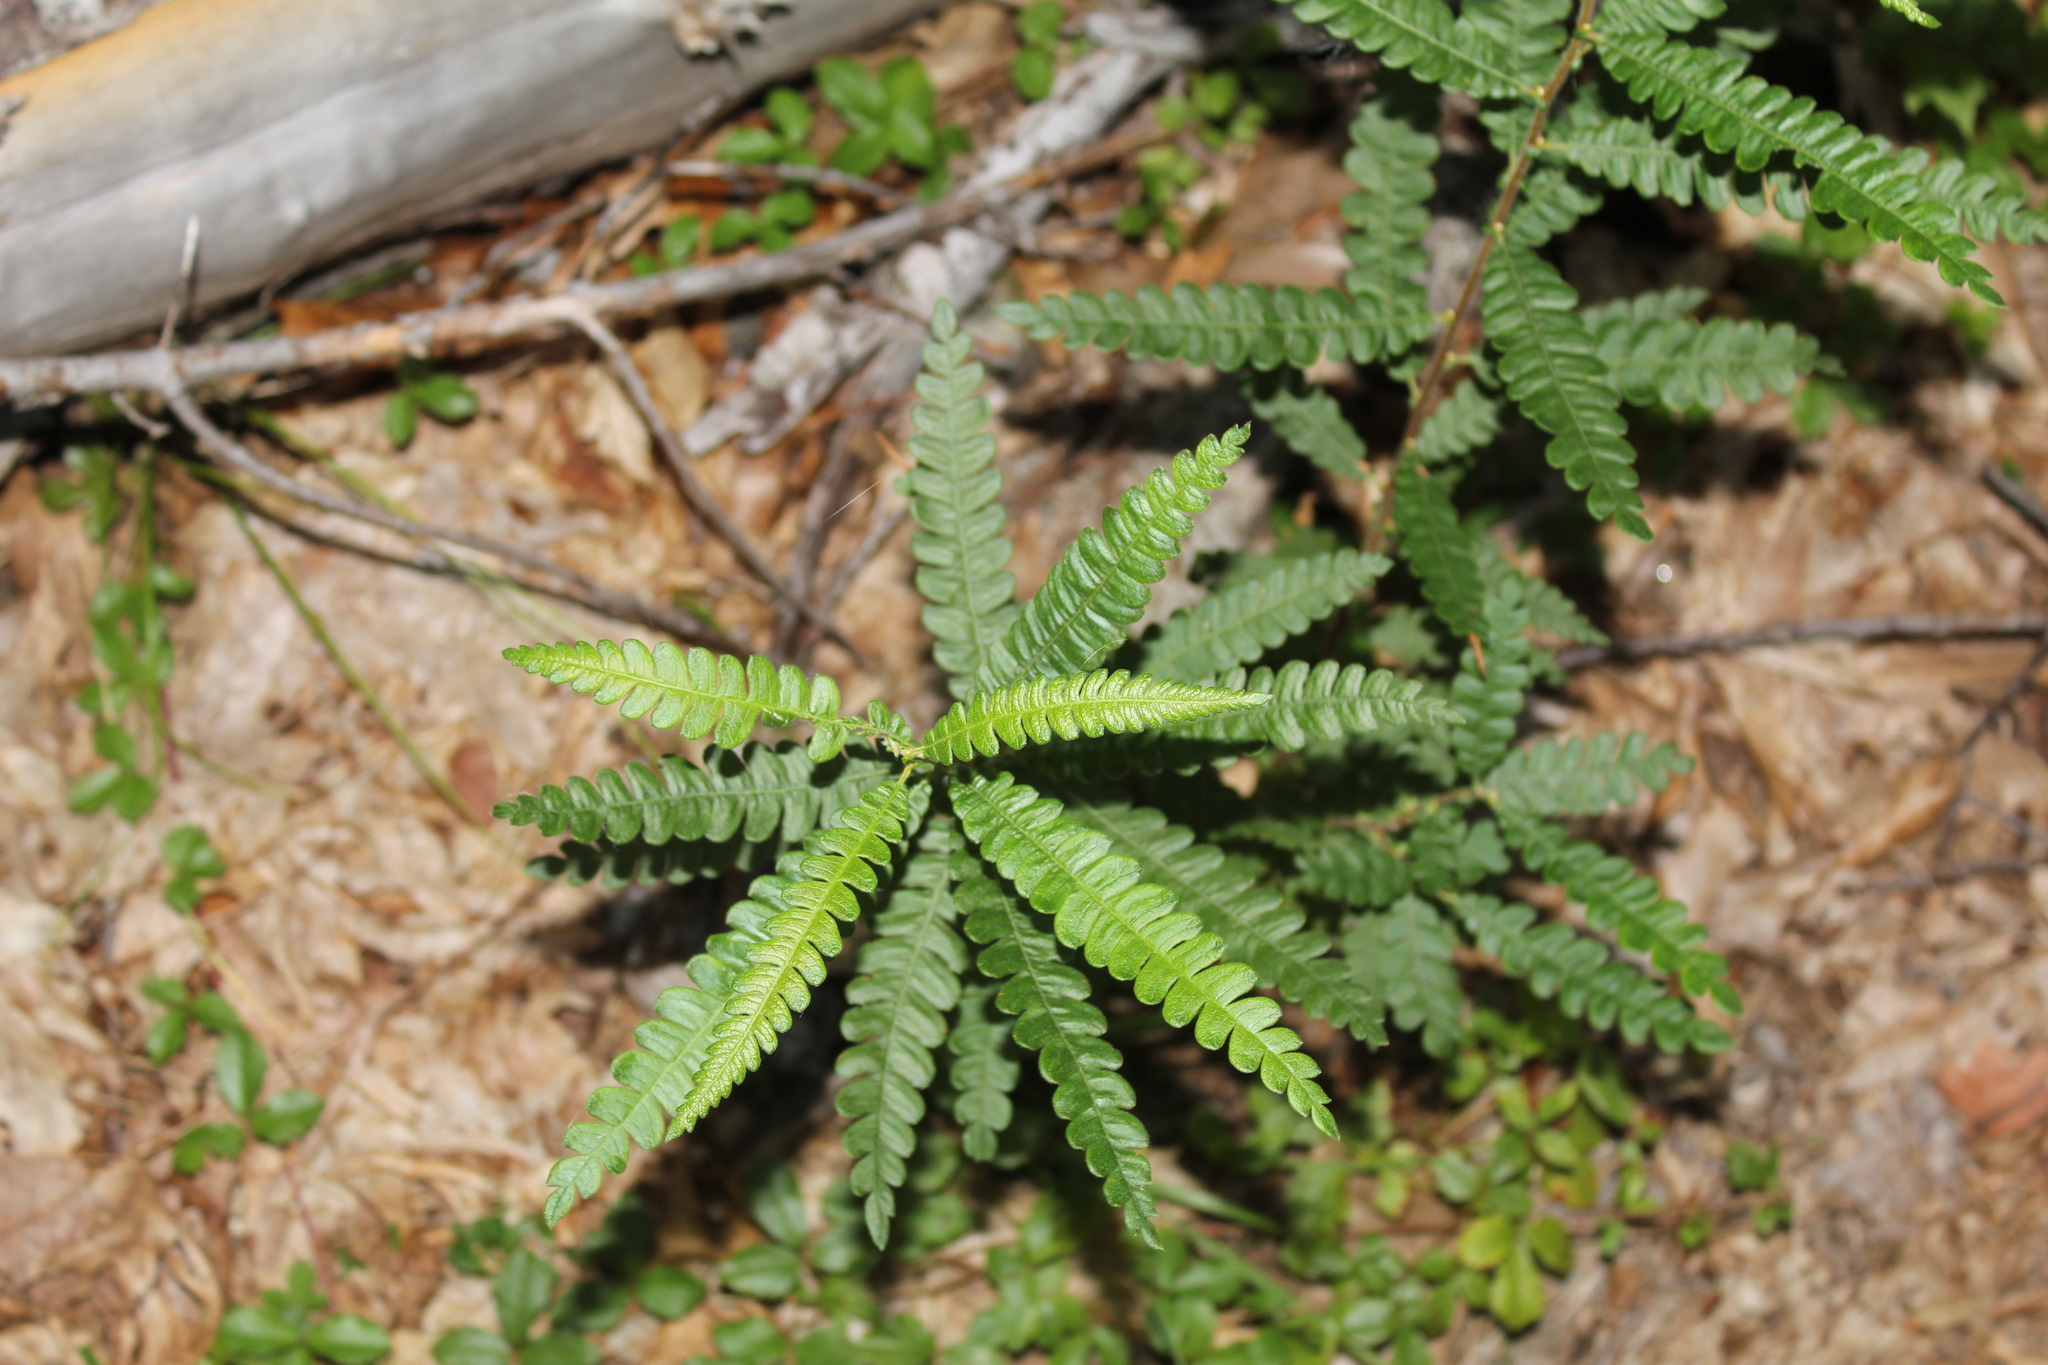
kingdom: Plantae
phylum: Tracheophyta
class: Magnoliopsida
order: Fagales
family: Myricaceae
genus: Comptonia
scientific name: Comptonia peregrina
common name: Sweet-fern
